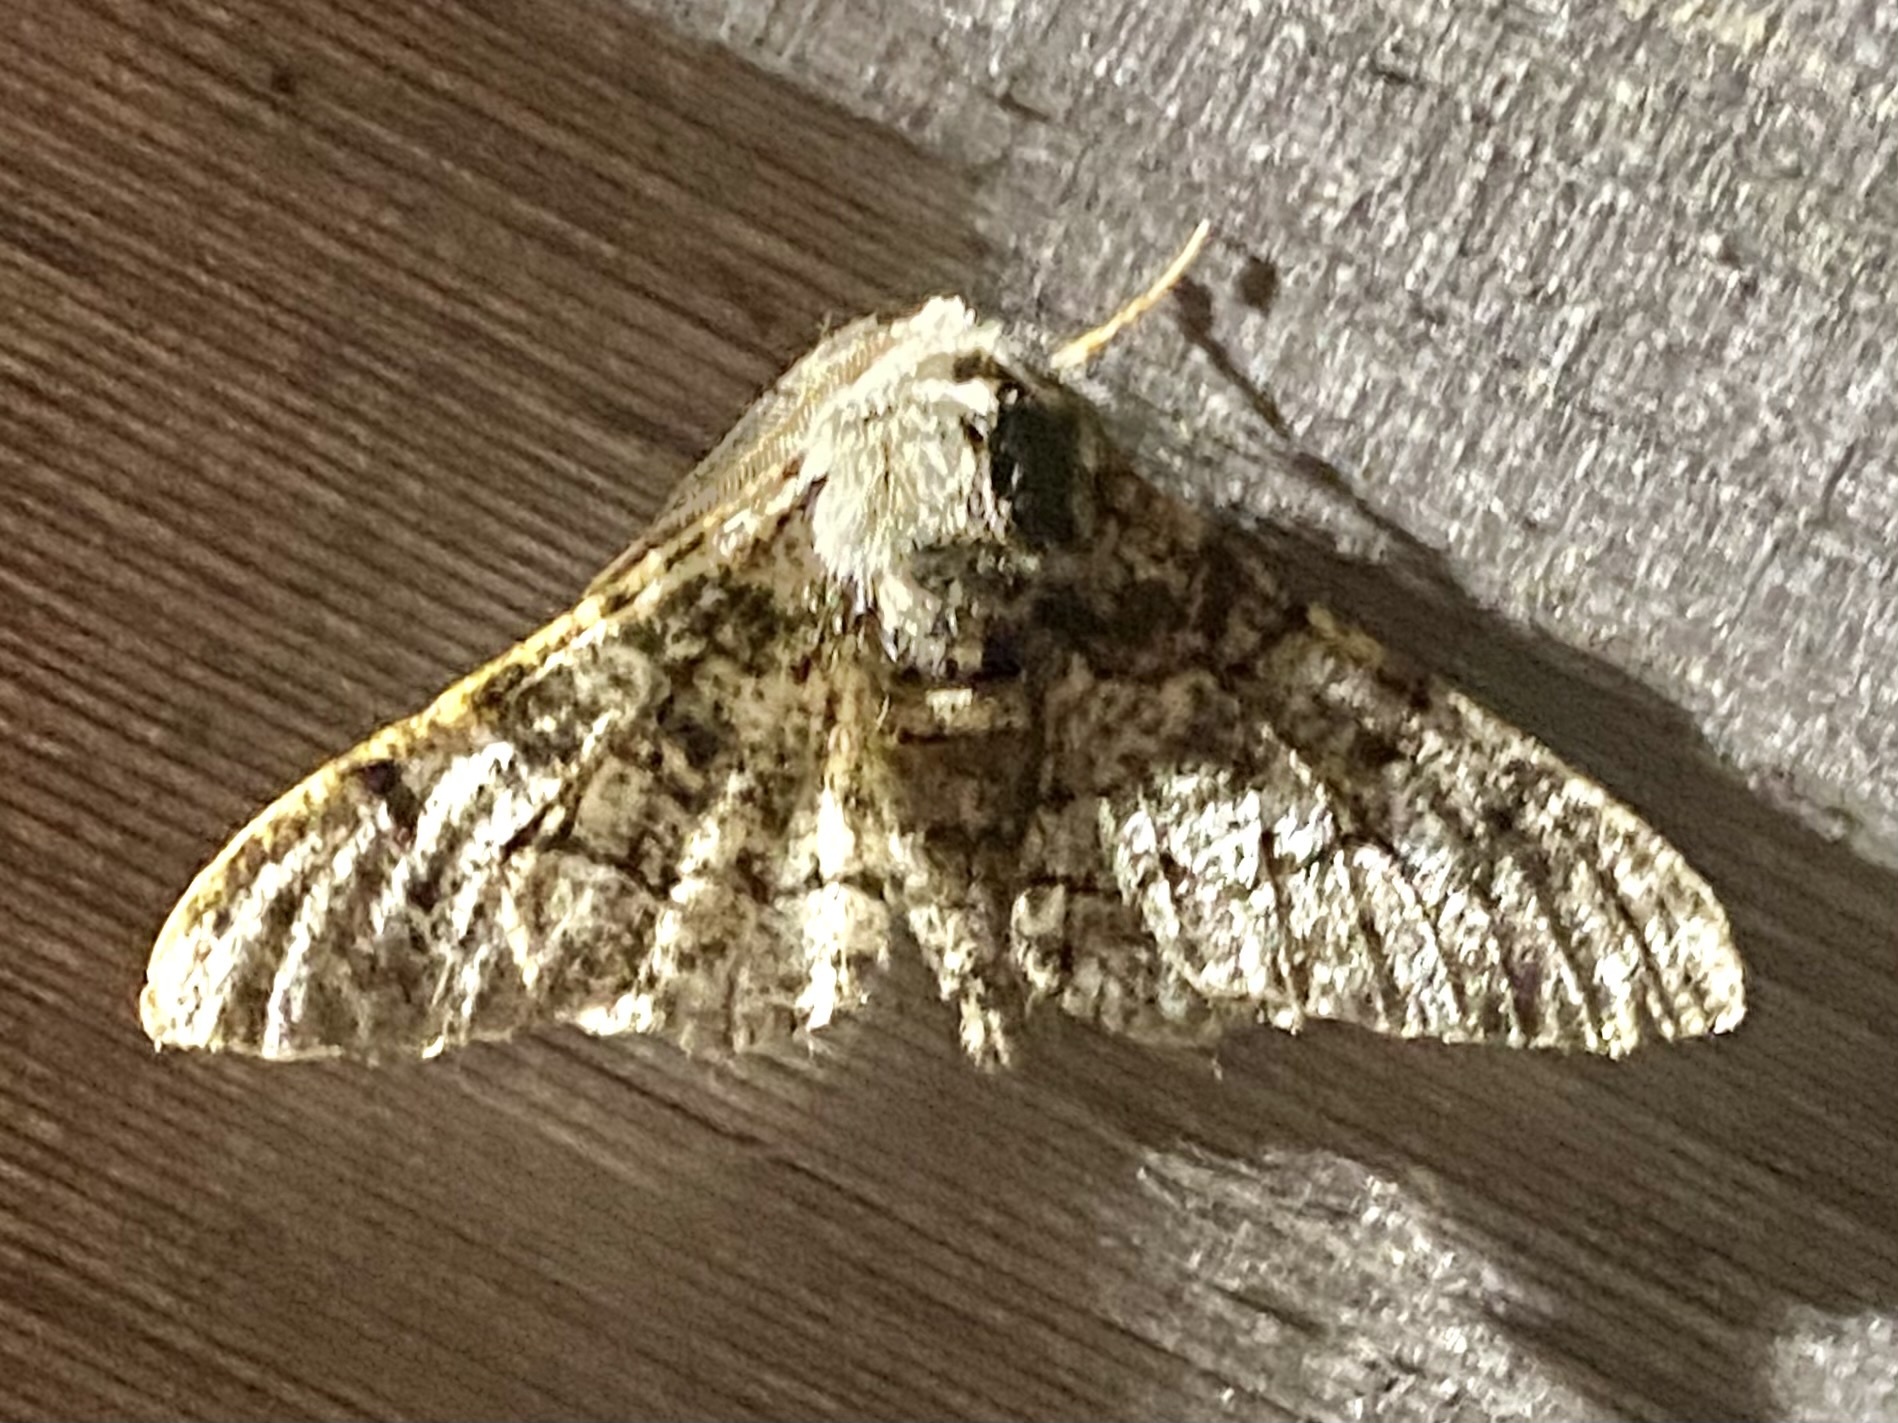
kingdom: Animalia
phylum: Arthropoda
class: Insecta
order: Lepidoptera
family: Geometridae
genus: Biston
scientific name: Biston betularia
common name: Peppered moth
